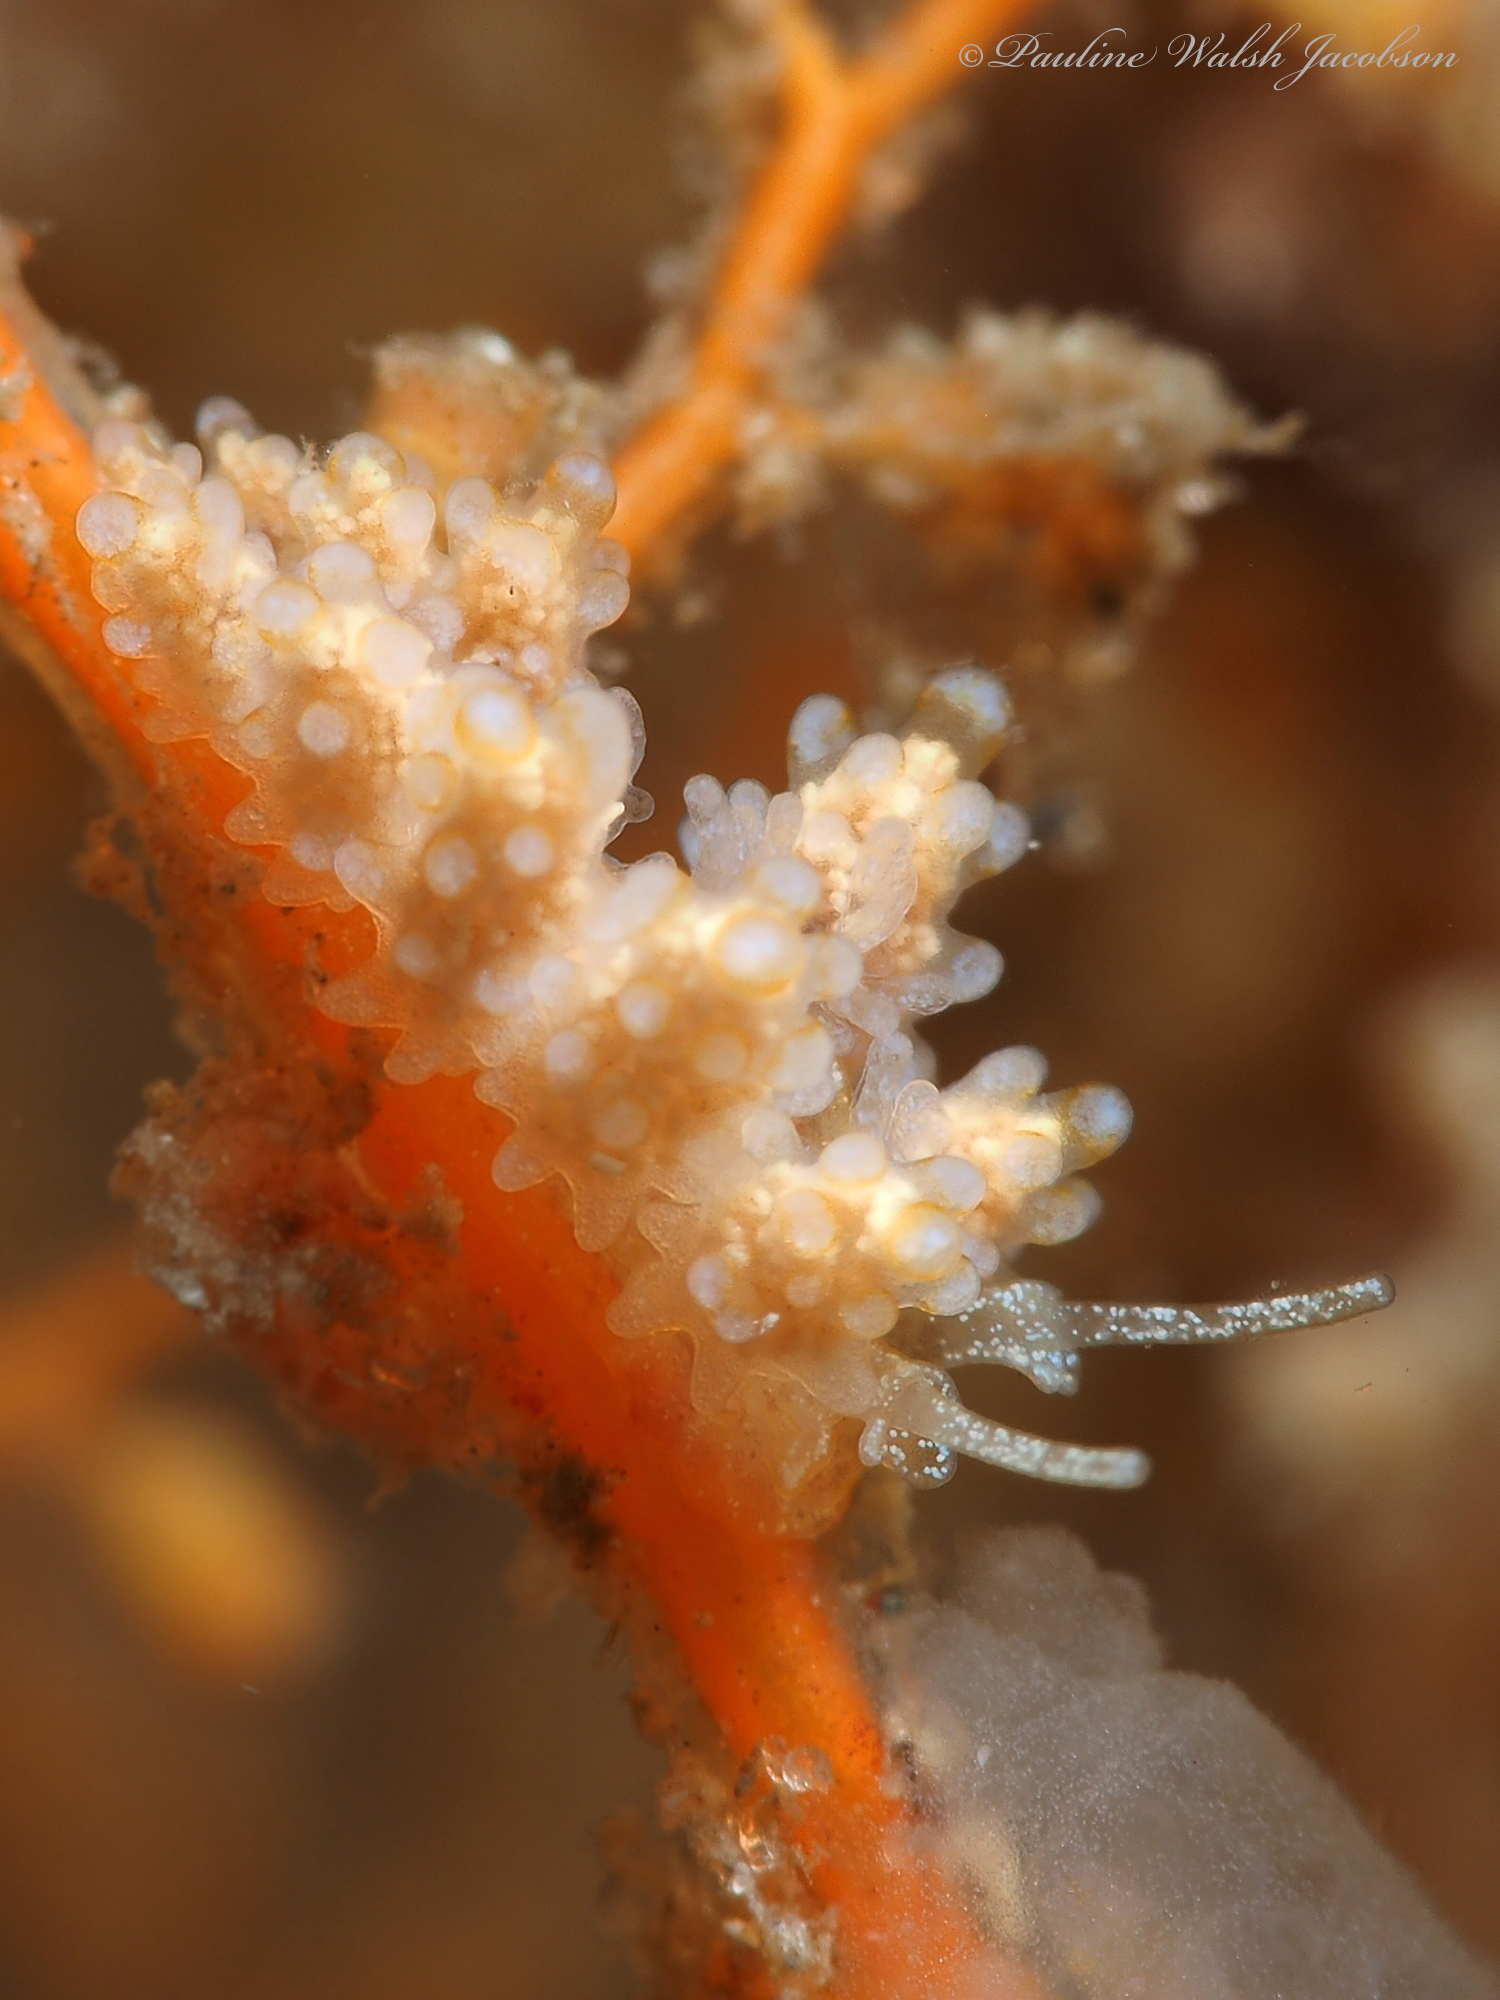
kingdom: Animalia
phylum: Mollusca
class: Gastropoda
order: Nudibranchia
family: Dotidae
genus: Doto
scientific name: Doto torrelavega
